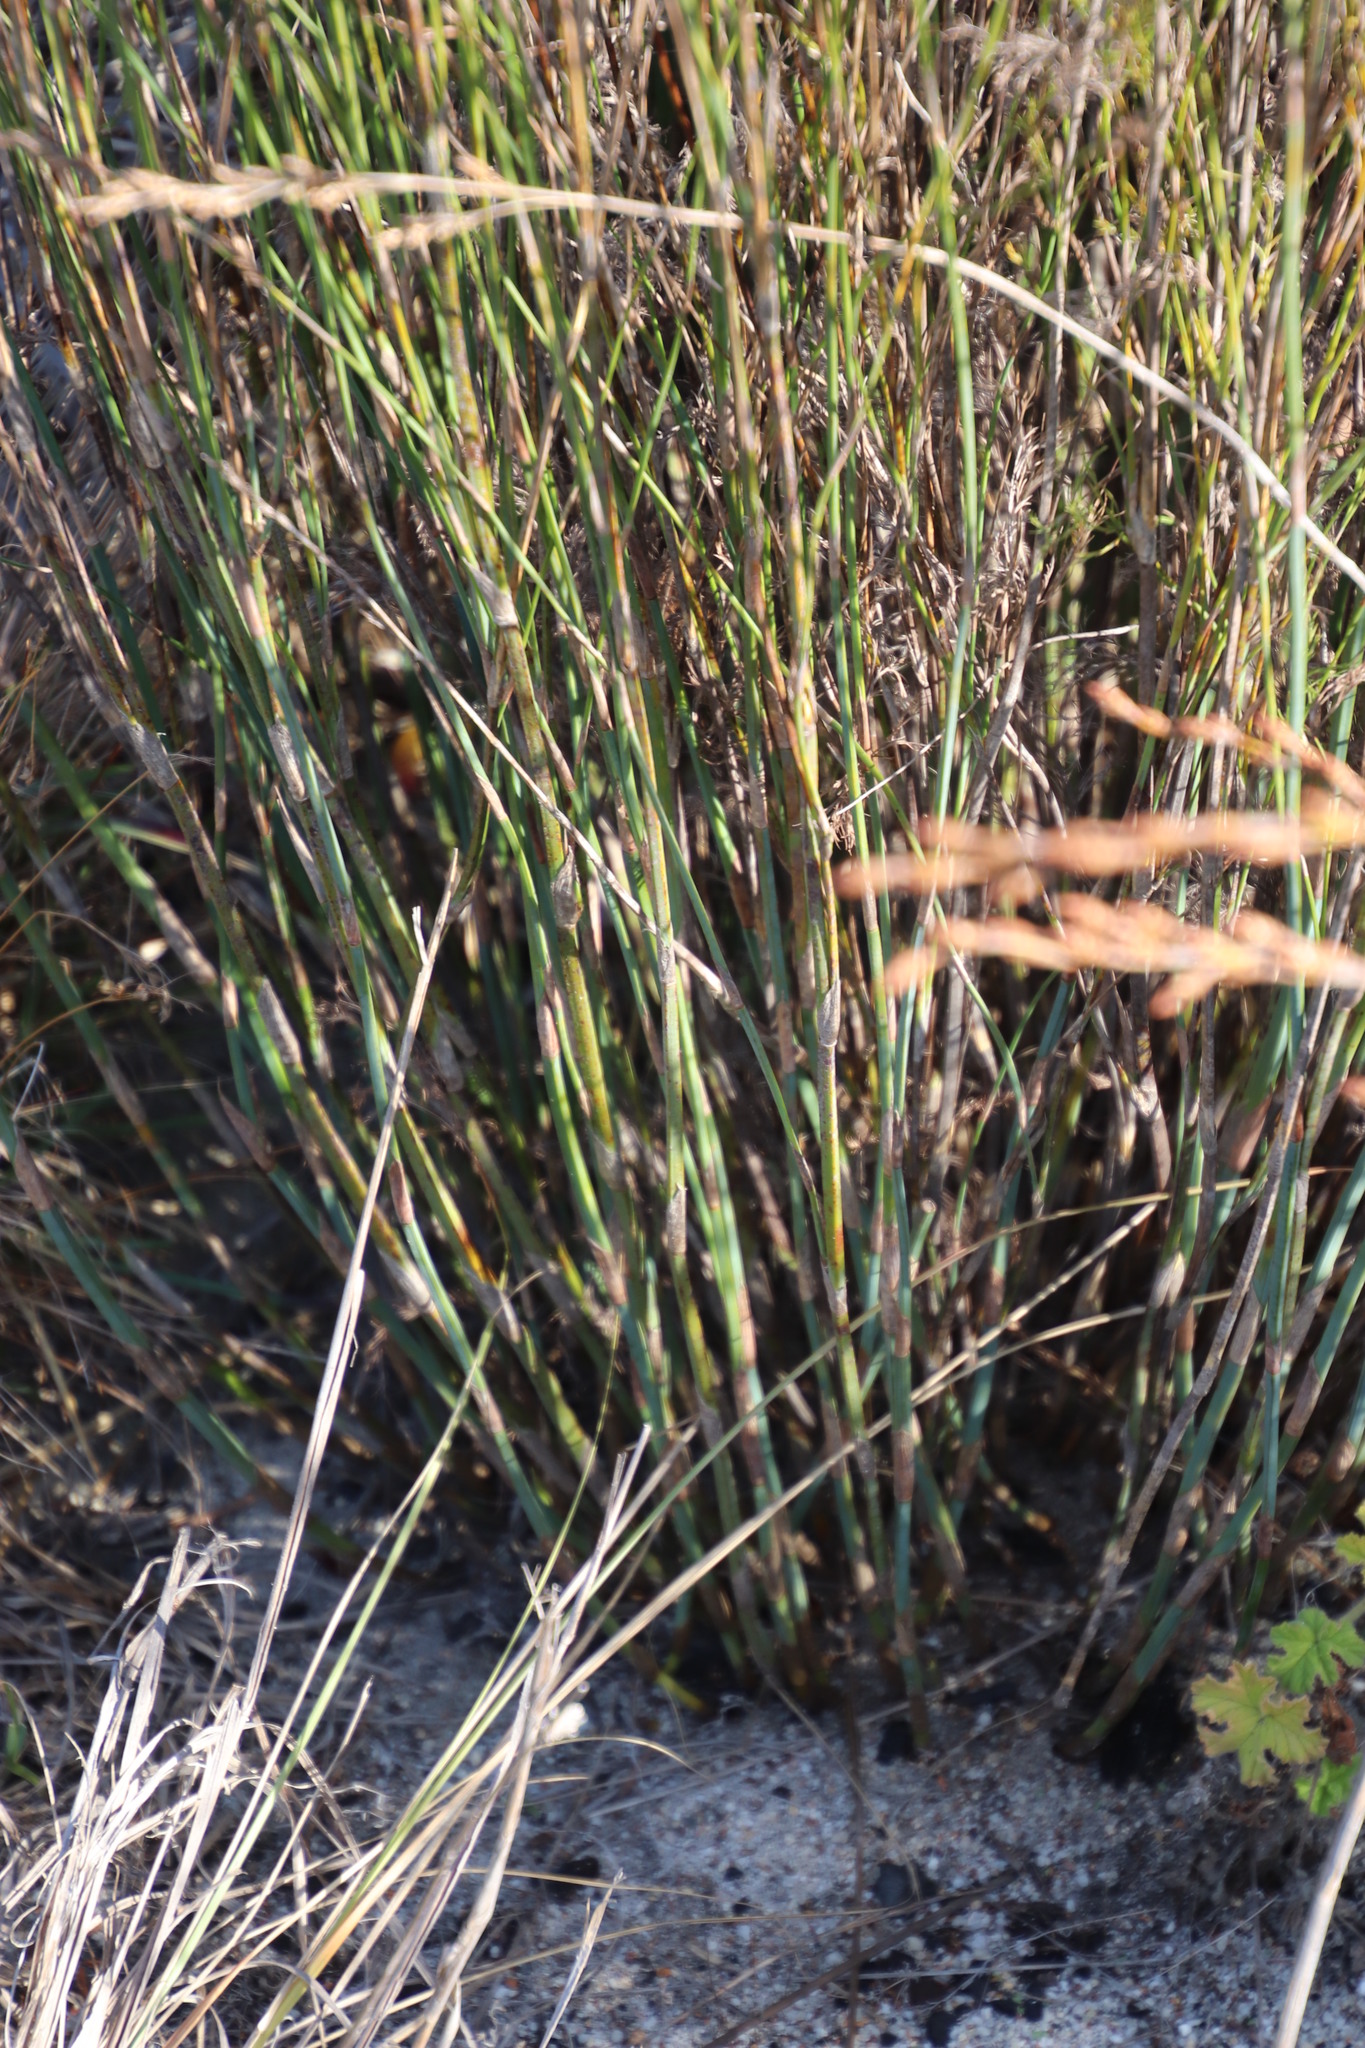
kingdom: Plantae
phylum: Tracheophyta
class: Liliopsida
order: Poales
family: Restionaceae
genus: Restio
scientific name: Restio tetragonus
